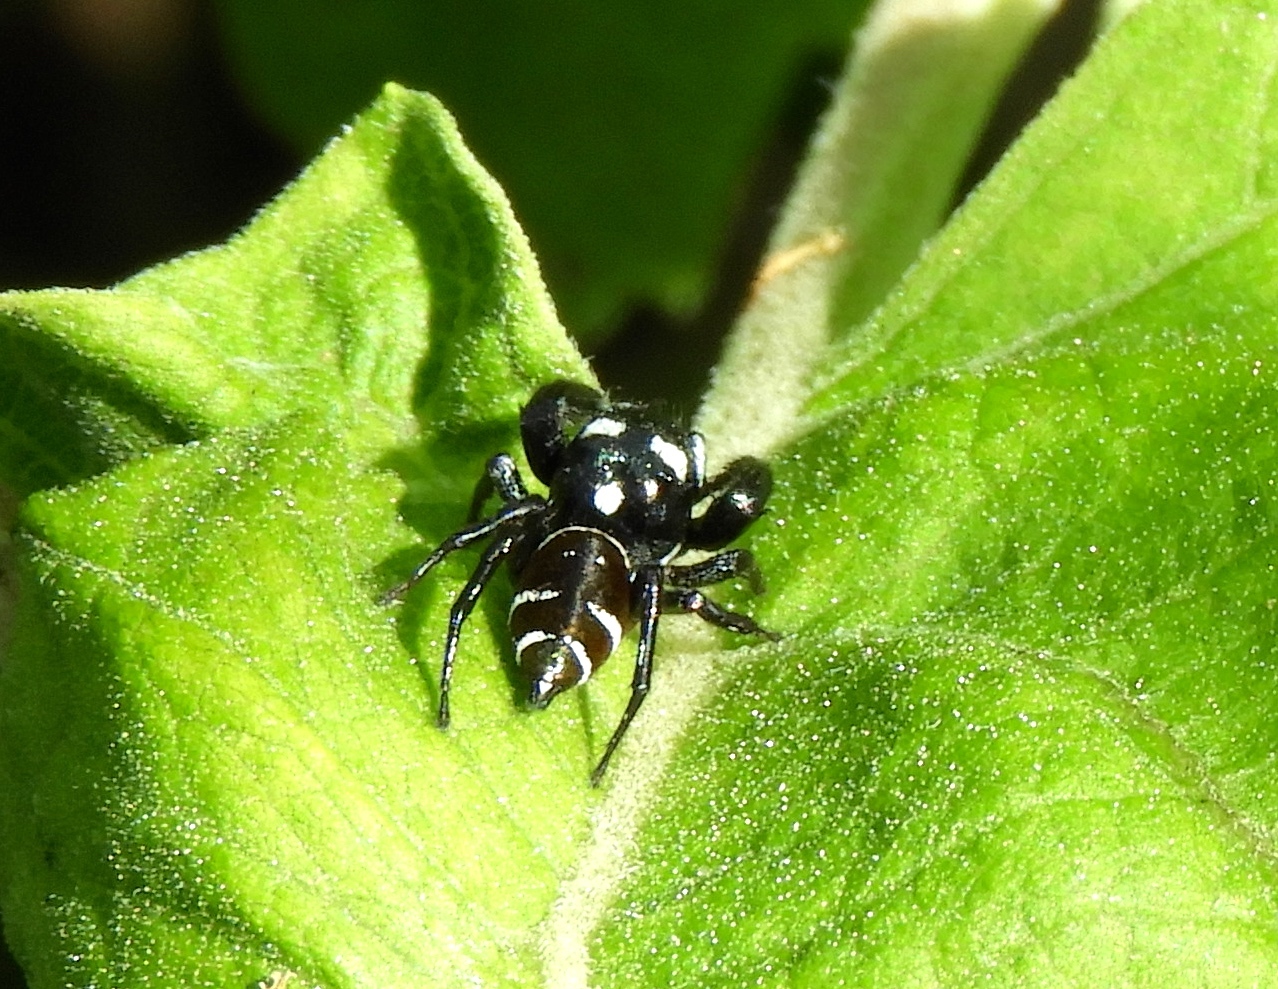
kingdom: Animalia
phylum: Arthropoda
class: Arachnida
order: Araneae
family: Salticidae
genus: Sassacus
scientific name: Sassacus
